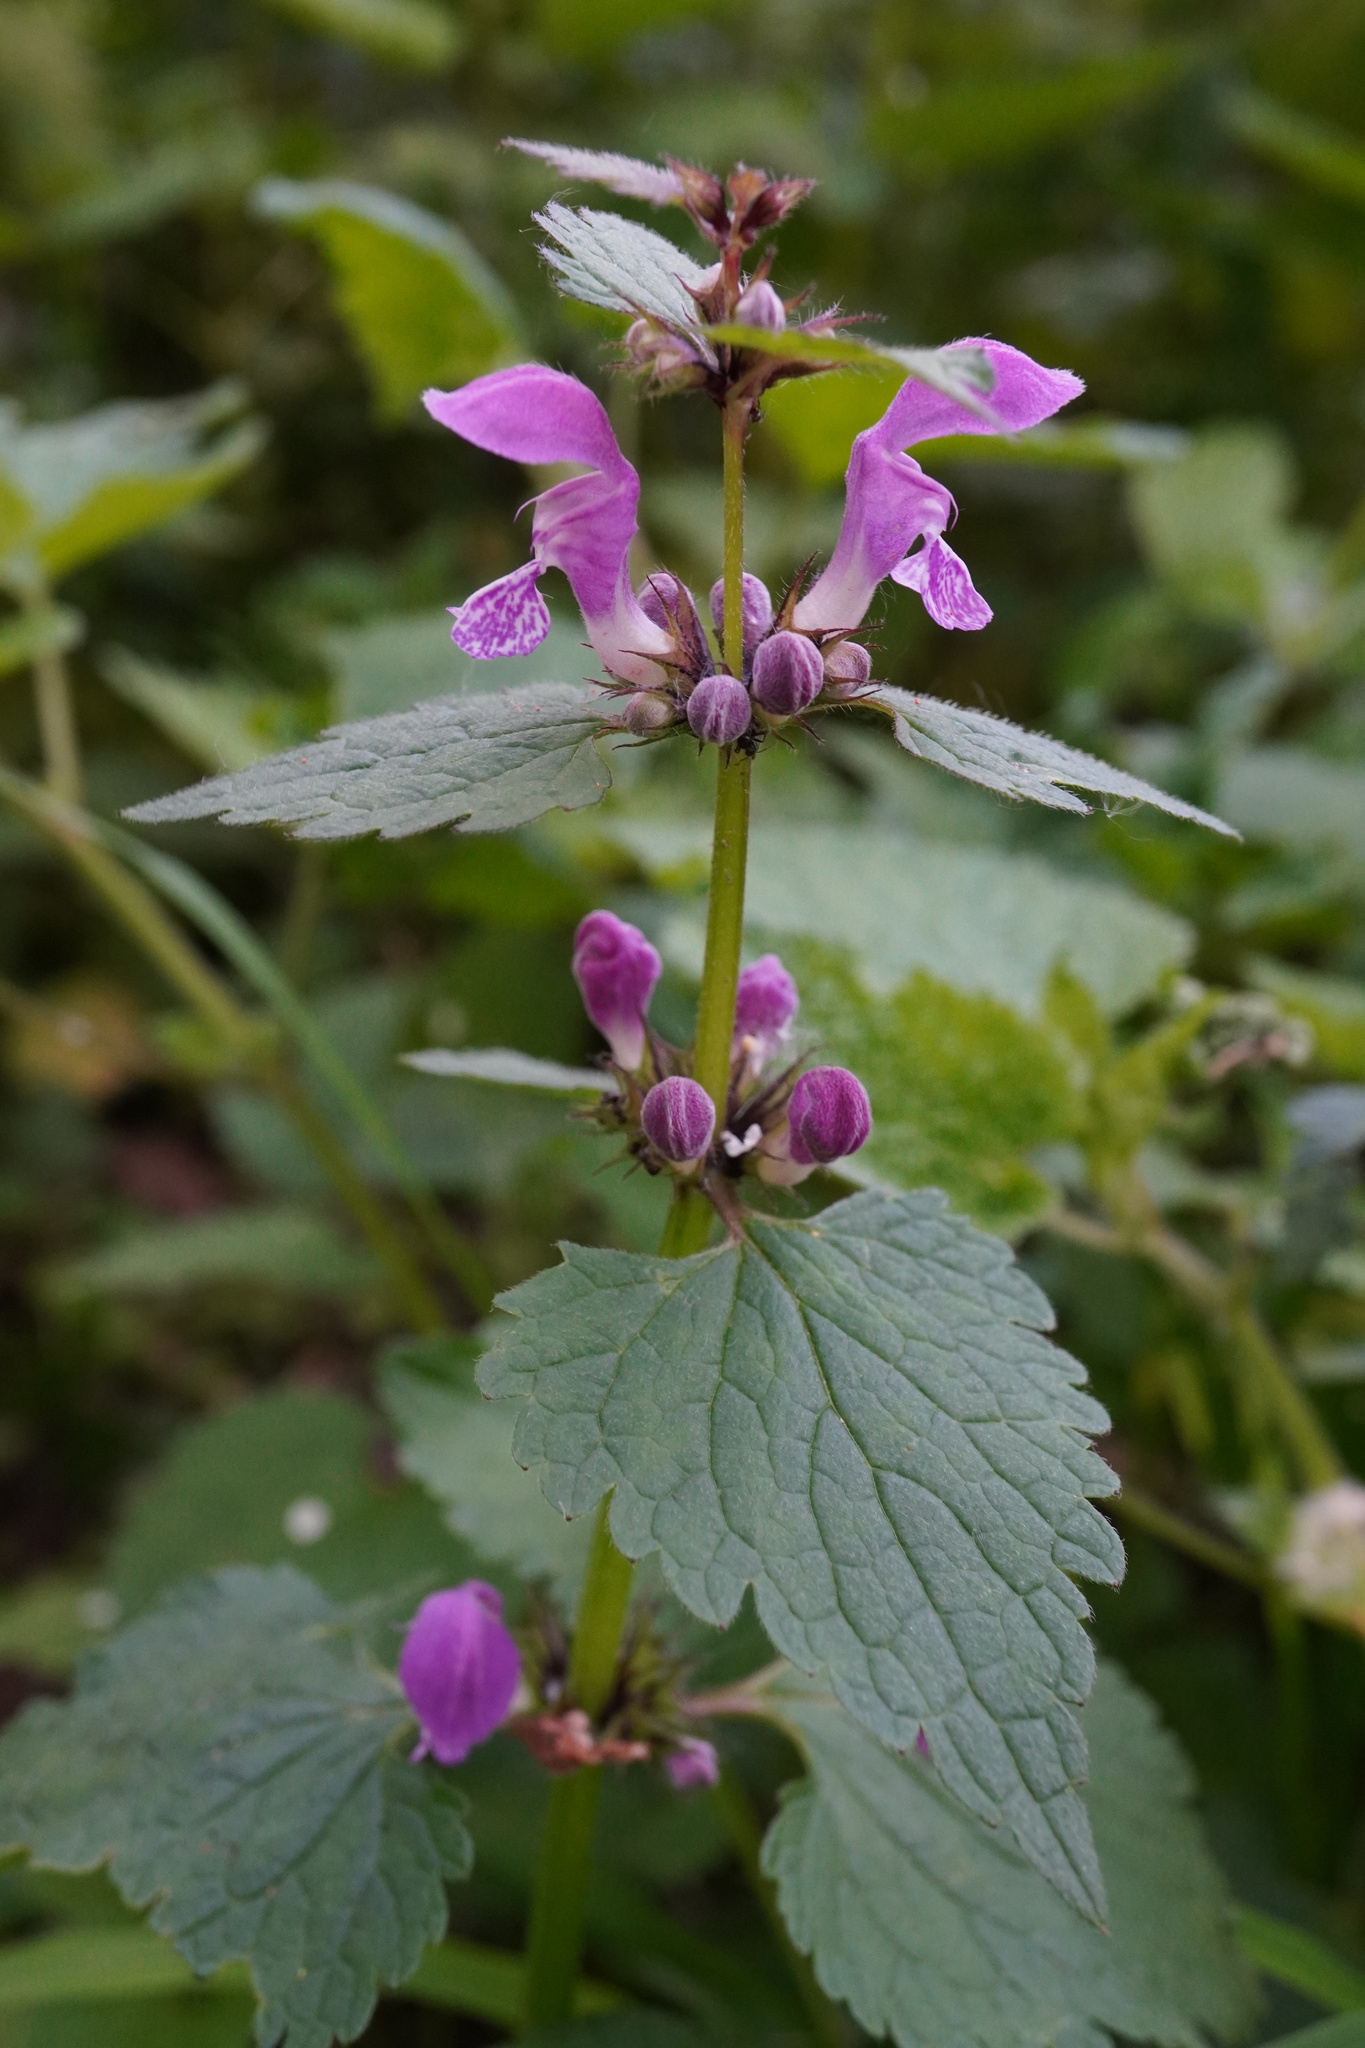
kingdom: Plantae
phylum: Tracheophyta
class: Magnoliopsida
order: Lamiales
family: Lamiaceae
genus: Lamium
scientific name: Lamium maculatum
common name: Spotted dead-nettle
